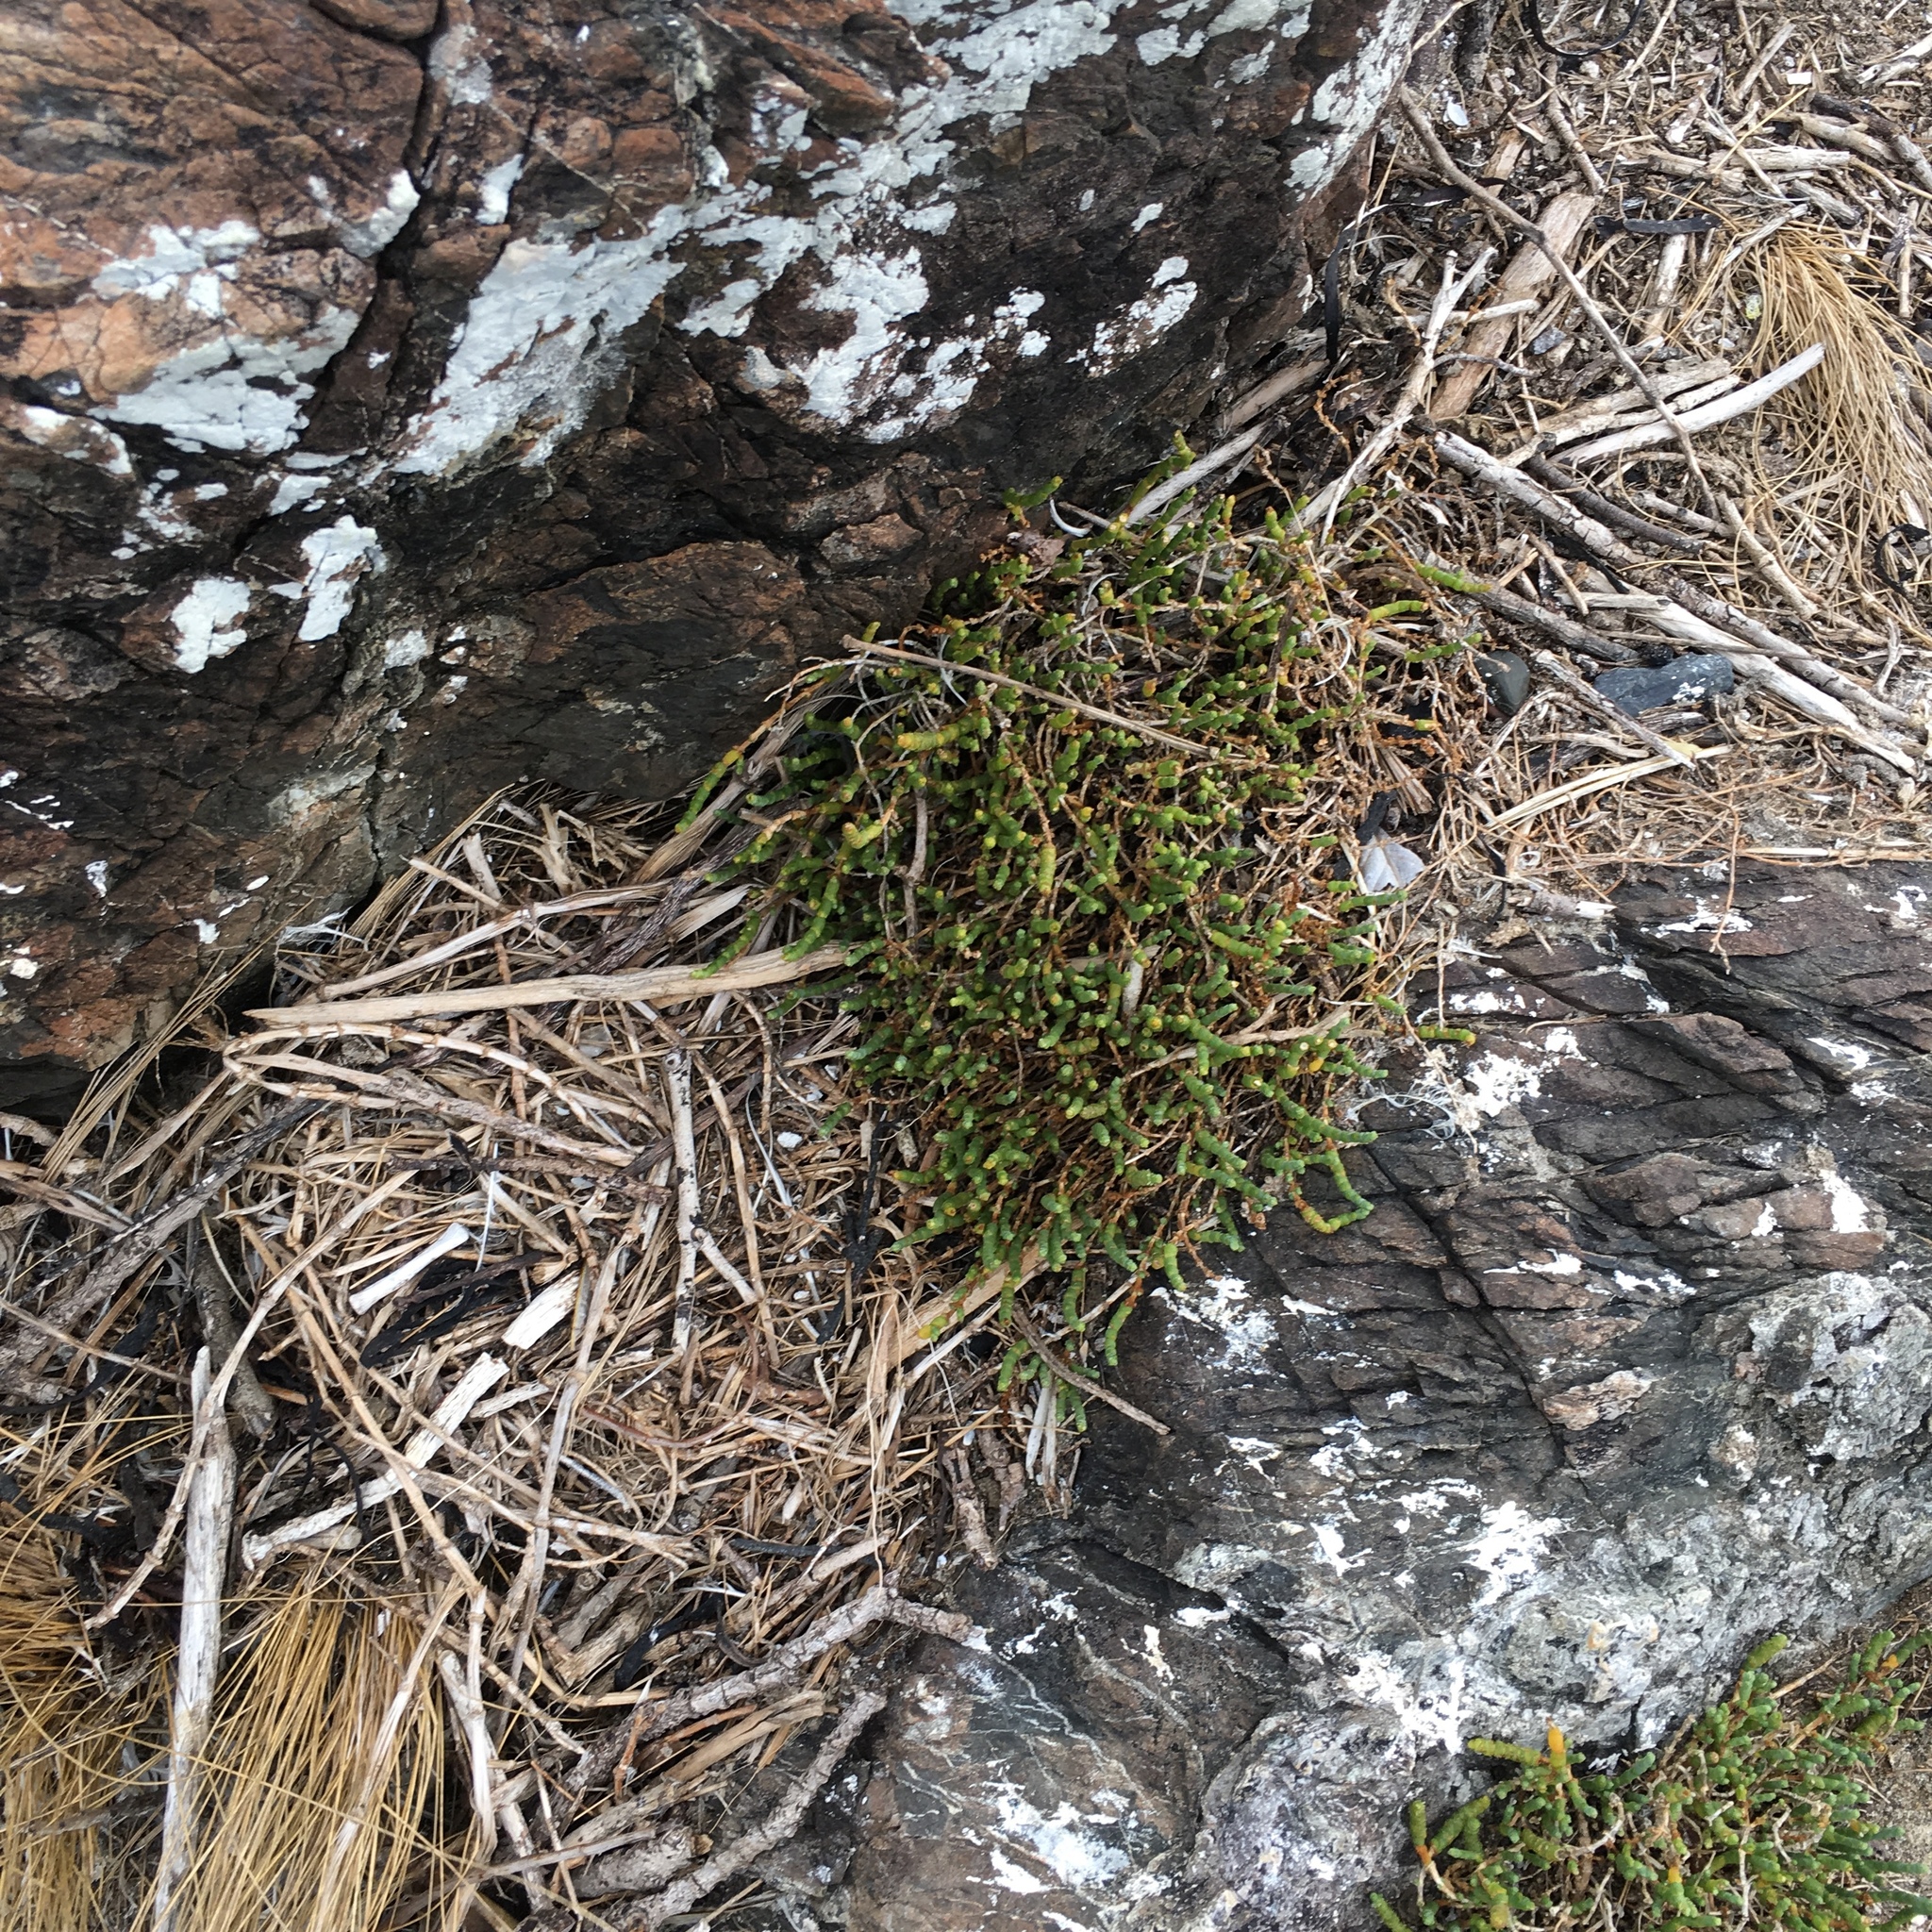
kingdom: Plantae
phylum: Tracheophyta
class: Magnoliopsida
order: Caryophyllales
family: Amaranthaceae
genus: Salicornia
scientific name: Salicornia quinqueflora
